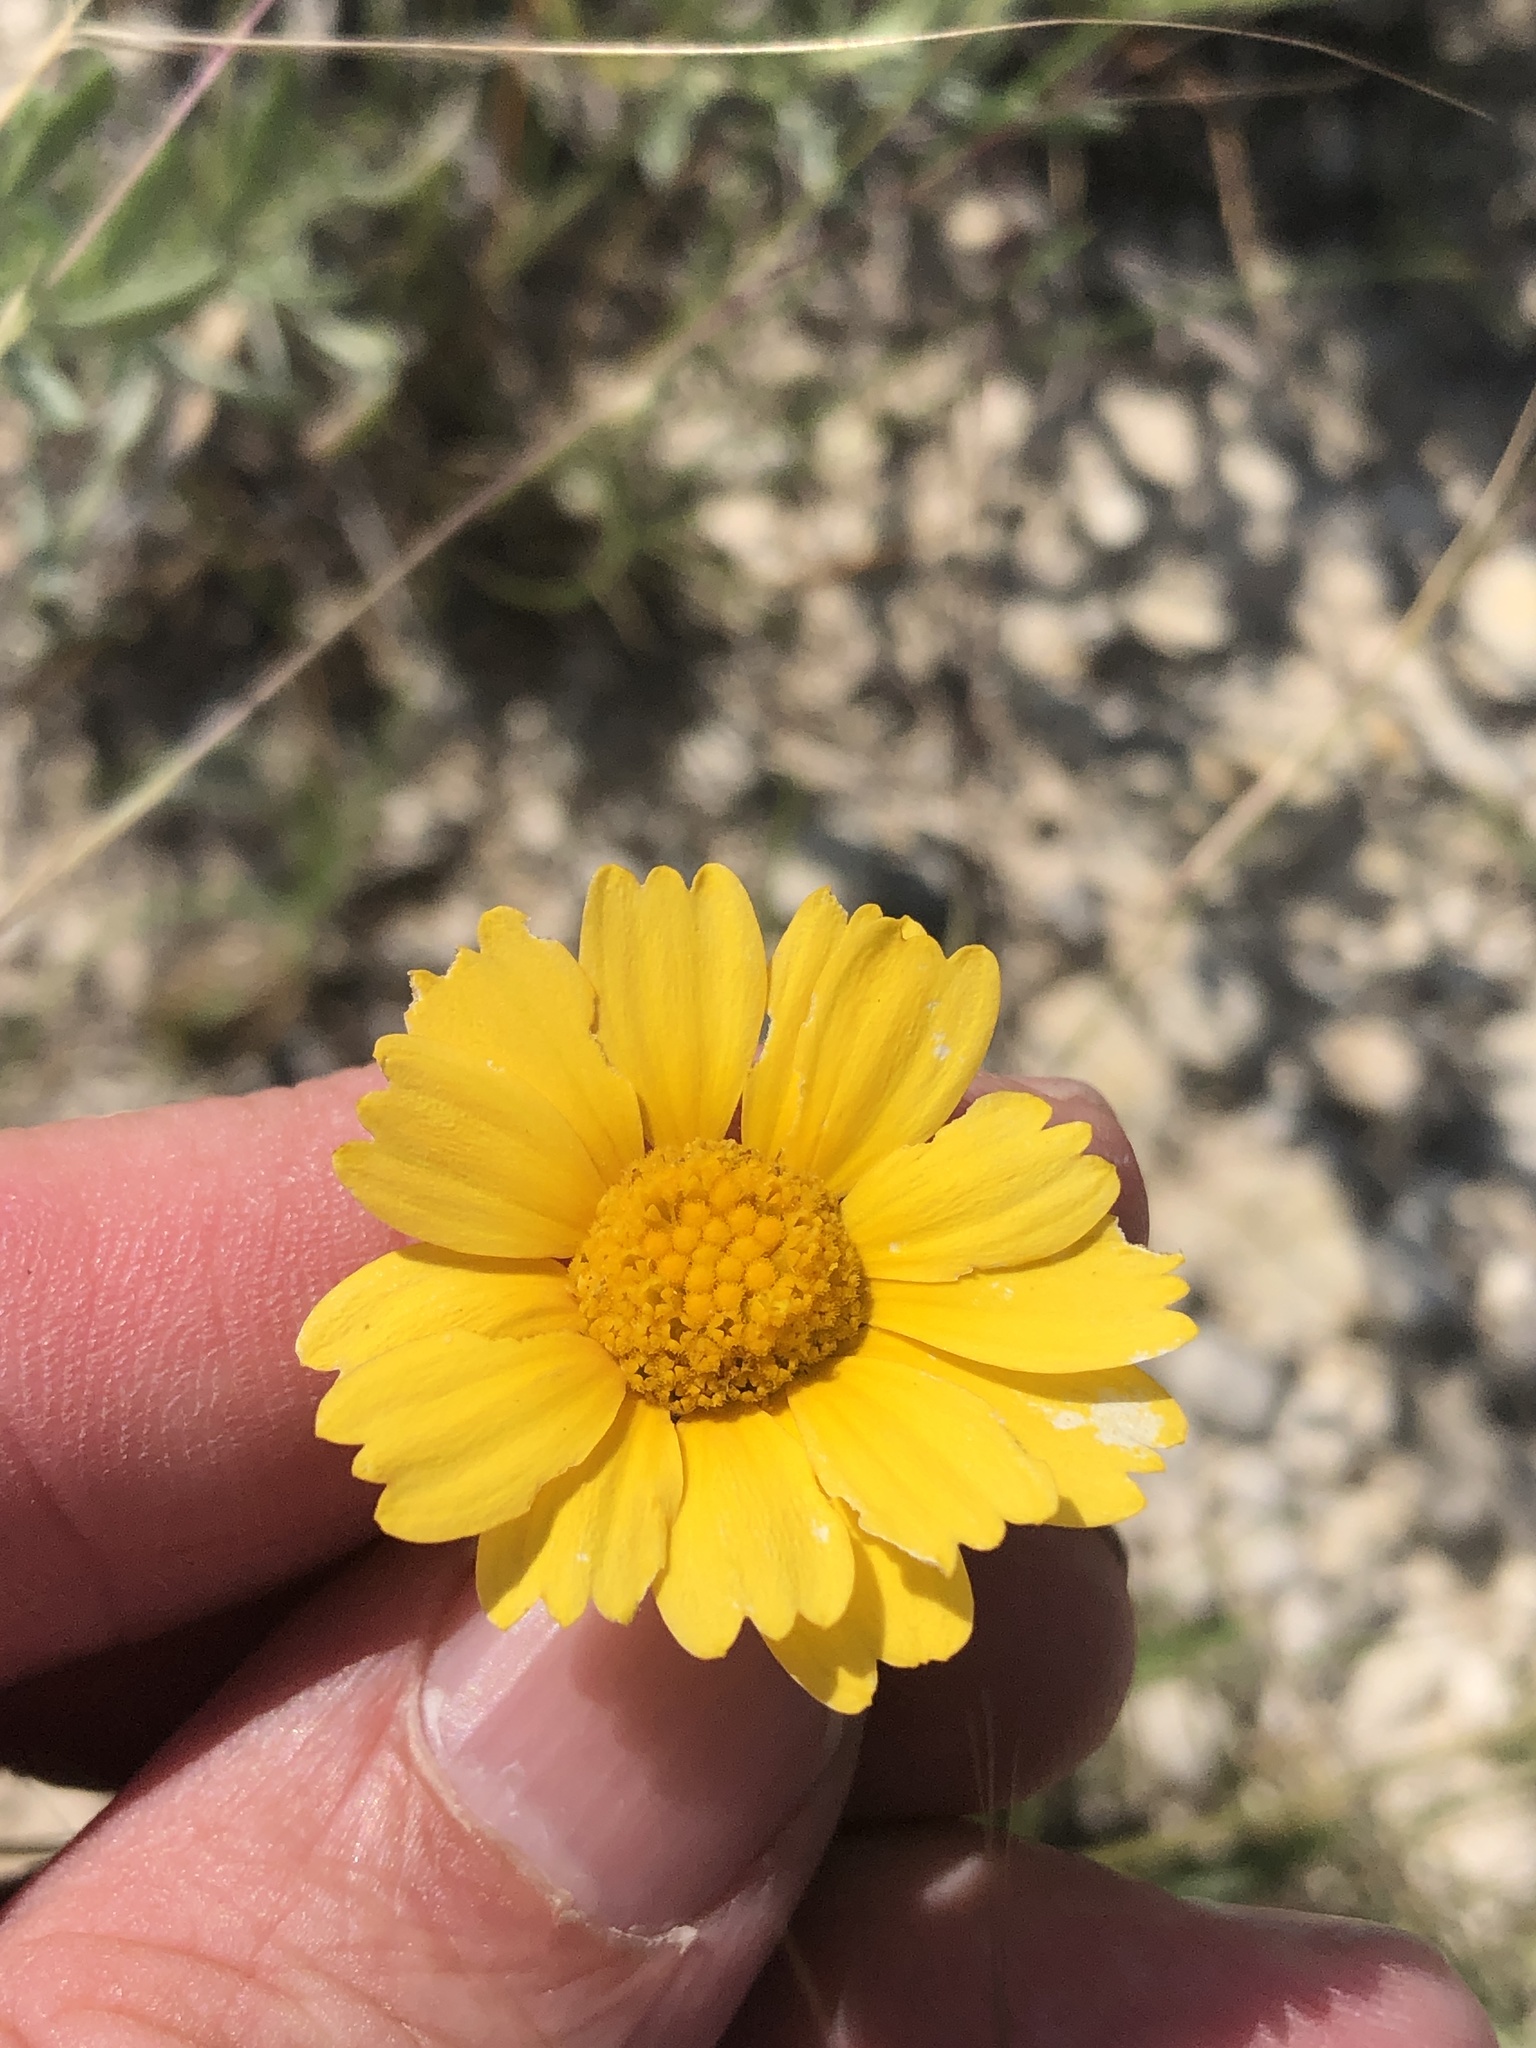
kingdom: Plantae
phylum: Tracheophyta
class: Magnoliopsida
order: Asterales
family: Asteraceae
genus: Tetraneuris
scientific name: Tetraneuris scaposa
